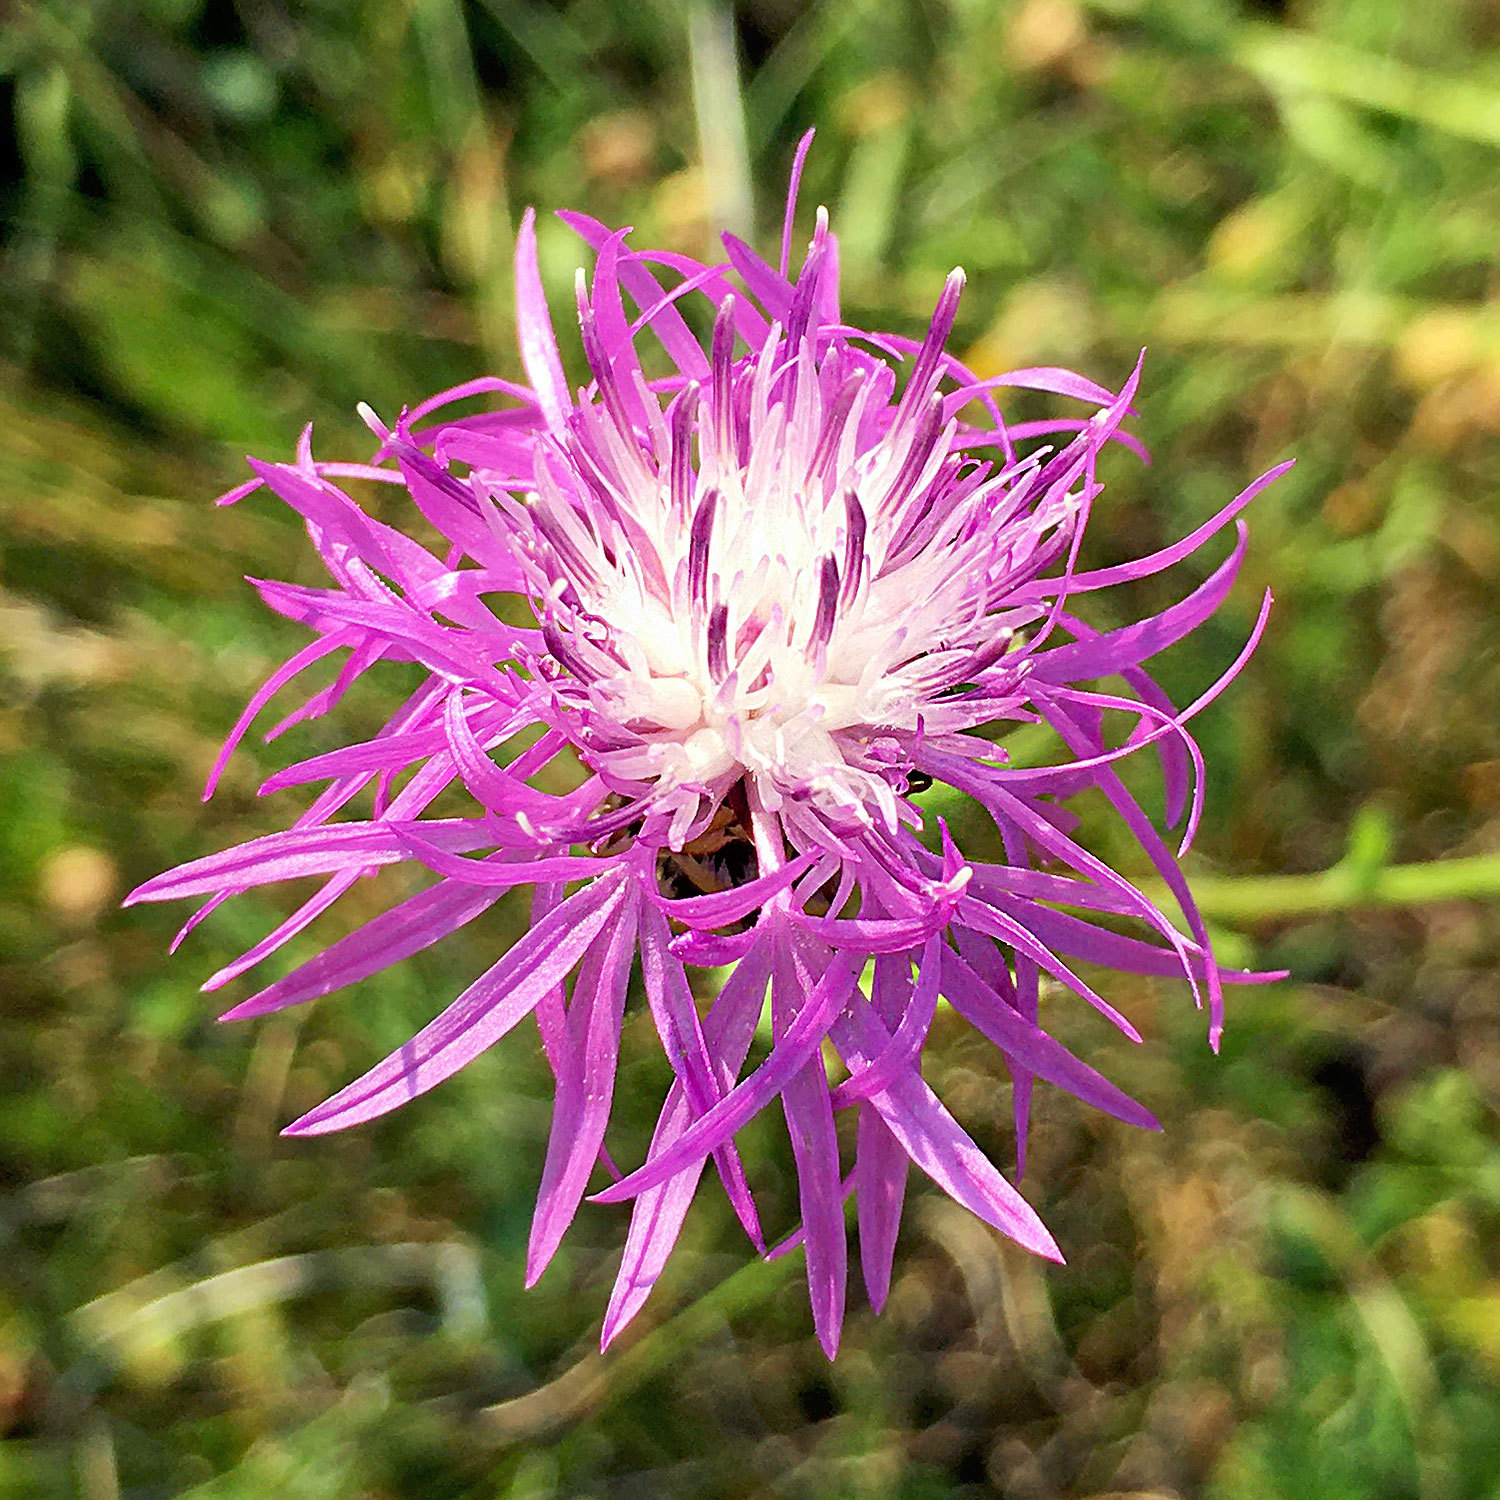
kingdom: Plantae
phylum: Tracheophyta
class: Magnoliopsida
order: Asterales
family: Asteraceae
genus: Centaurea
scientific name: Centaurea jacea
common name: Brown knapweed
